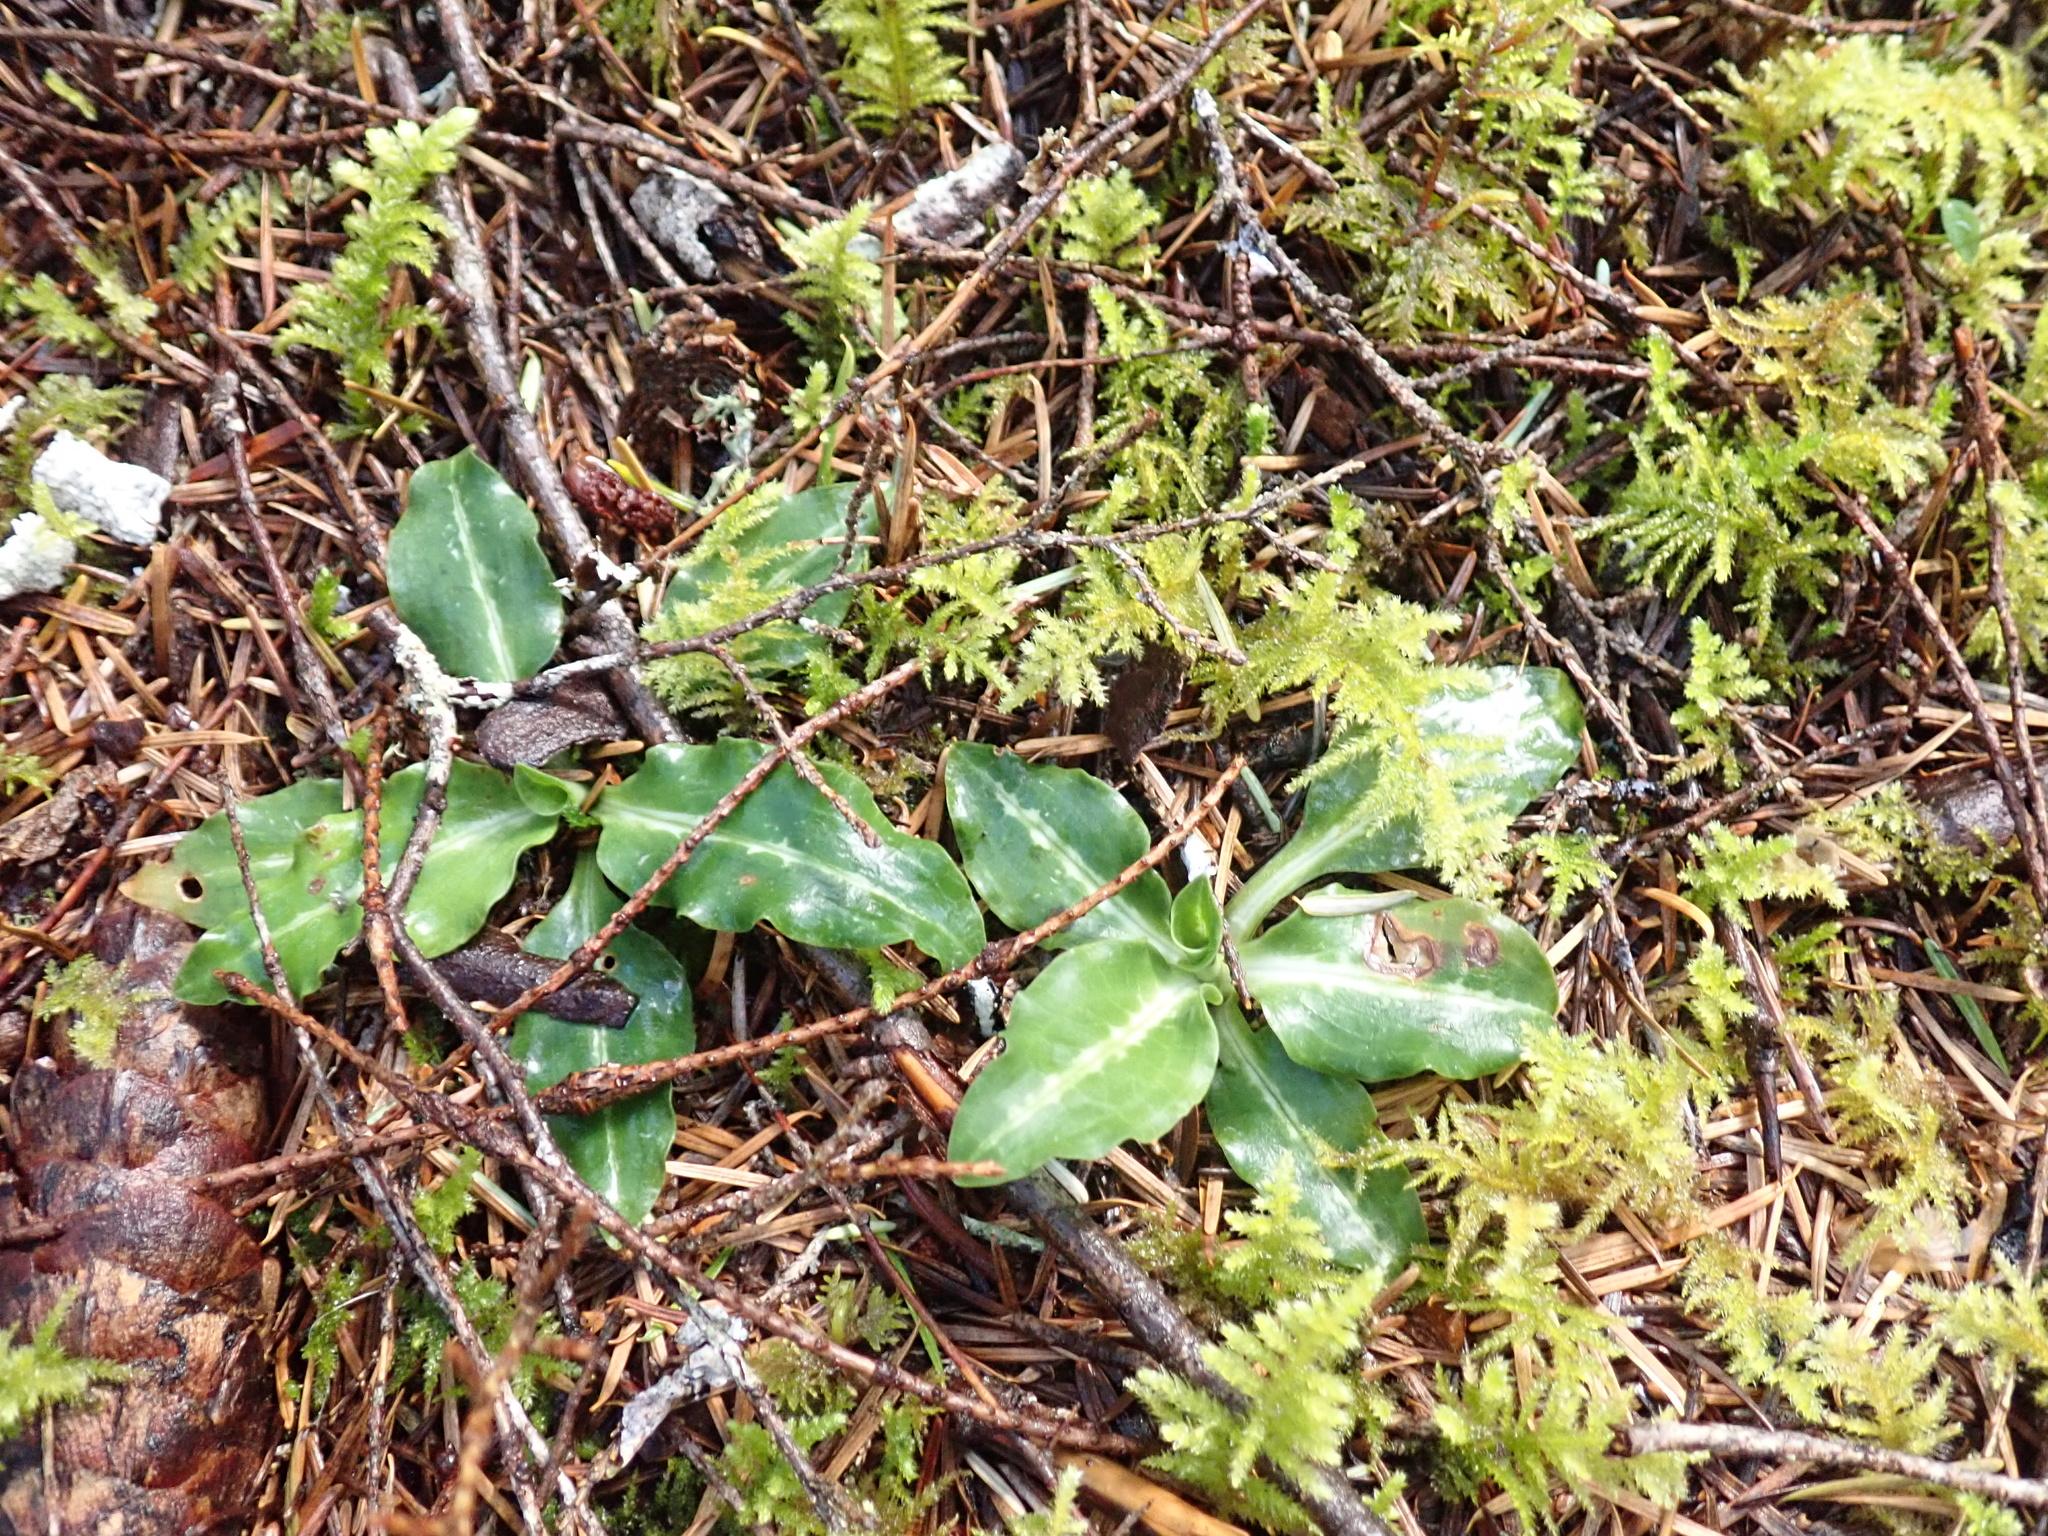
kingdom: Plantae
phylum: Tracheophyta
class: Liliopsida
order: Asparagales
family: Orchidaceae
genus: Goodyera
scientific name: Goodyera oblongifolia
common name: Giant rattlesnake-plantain
